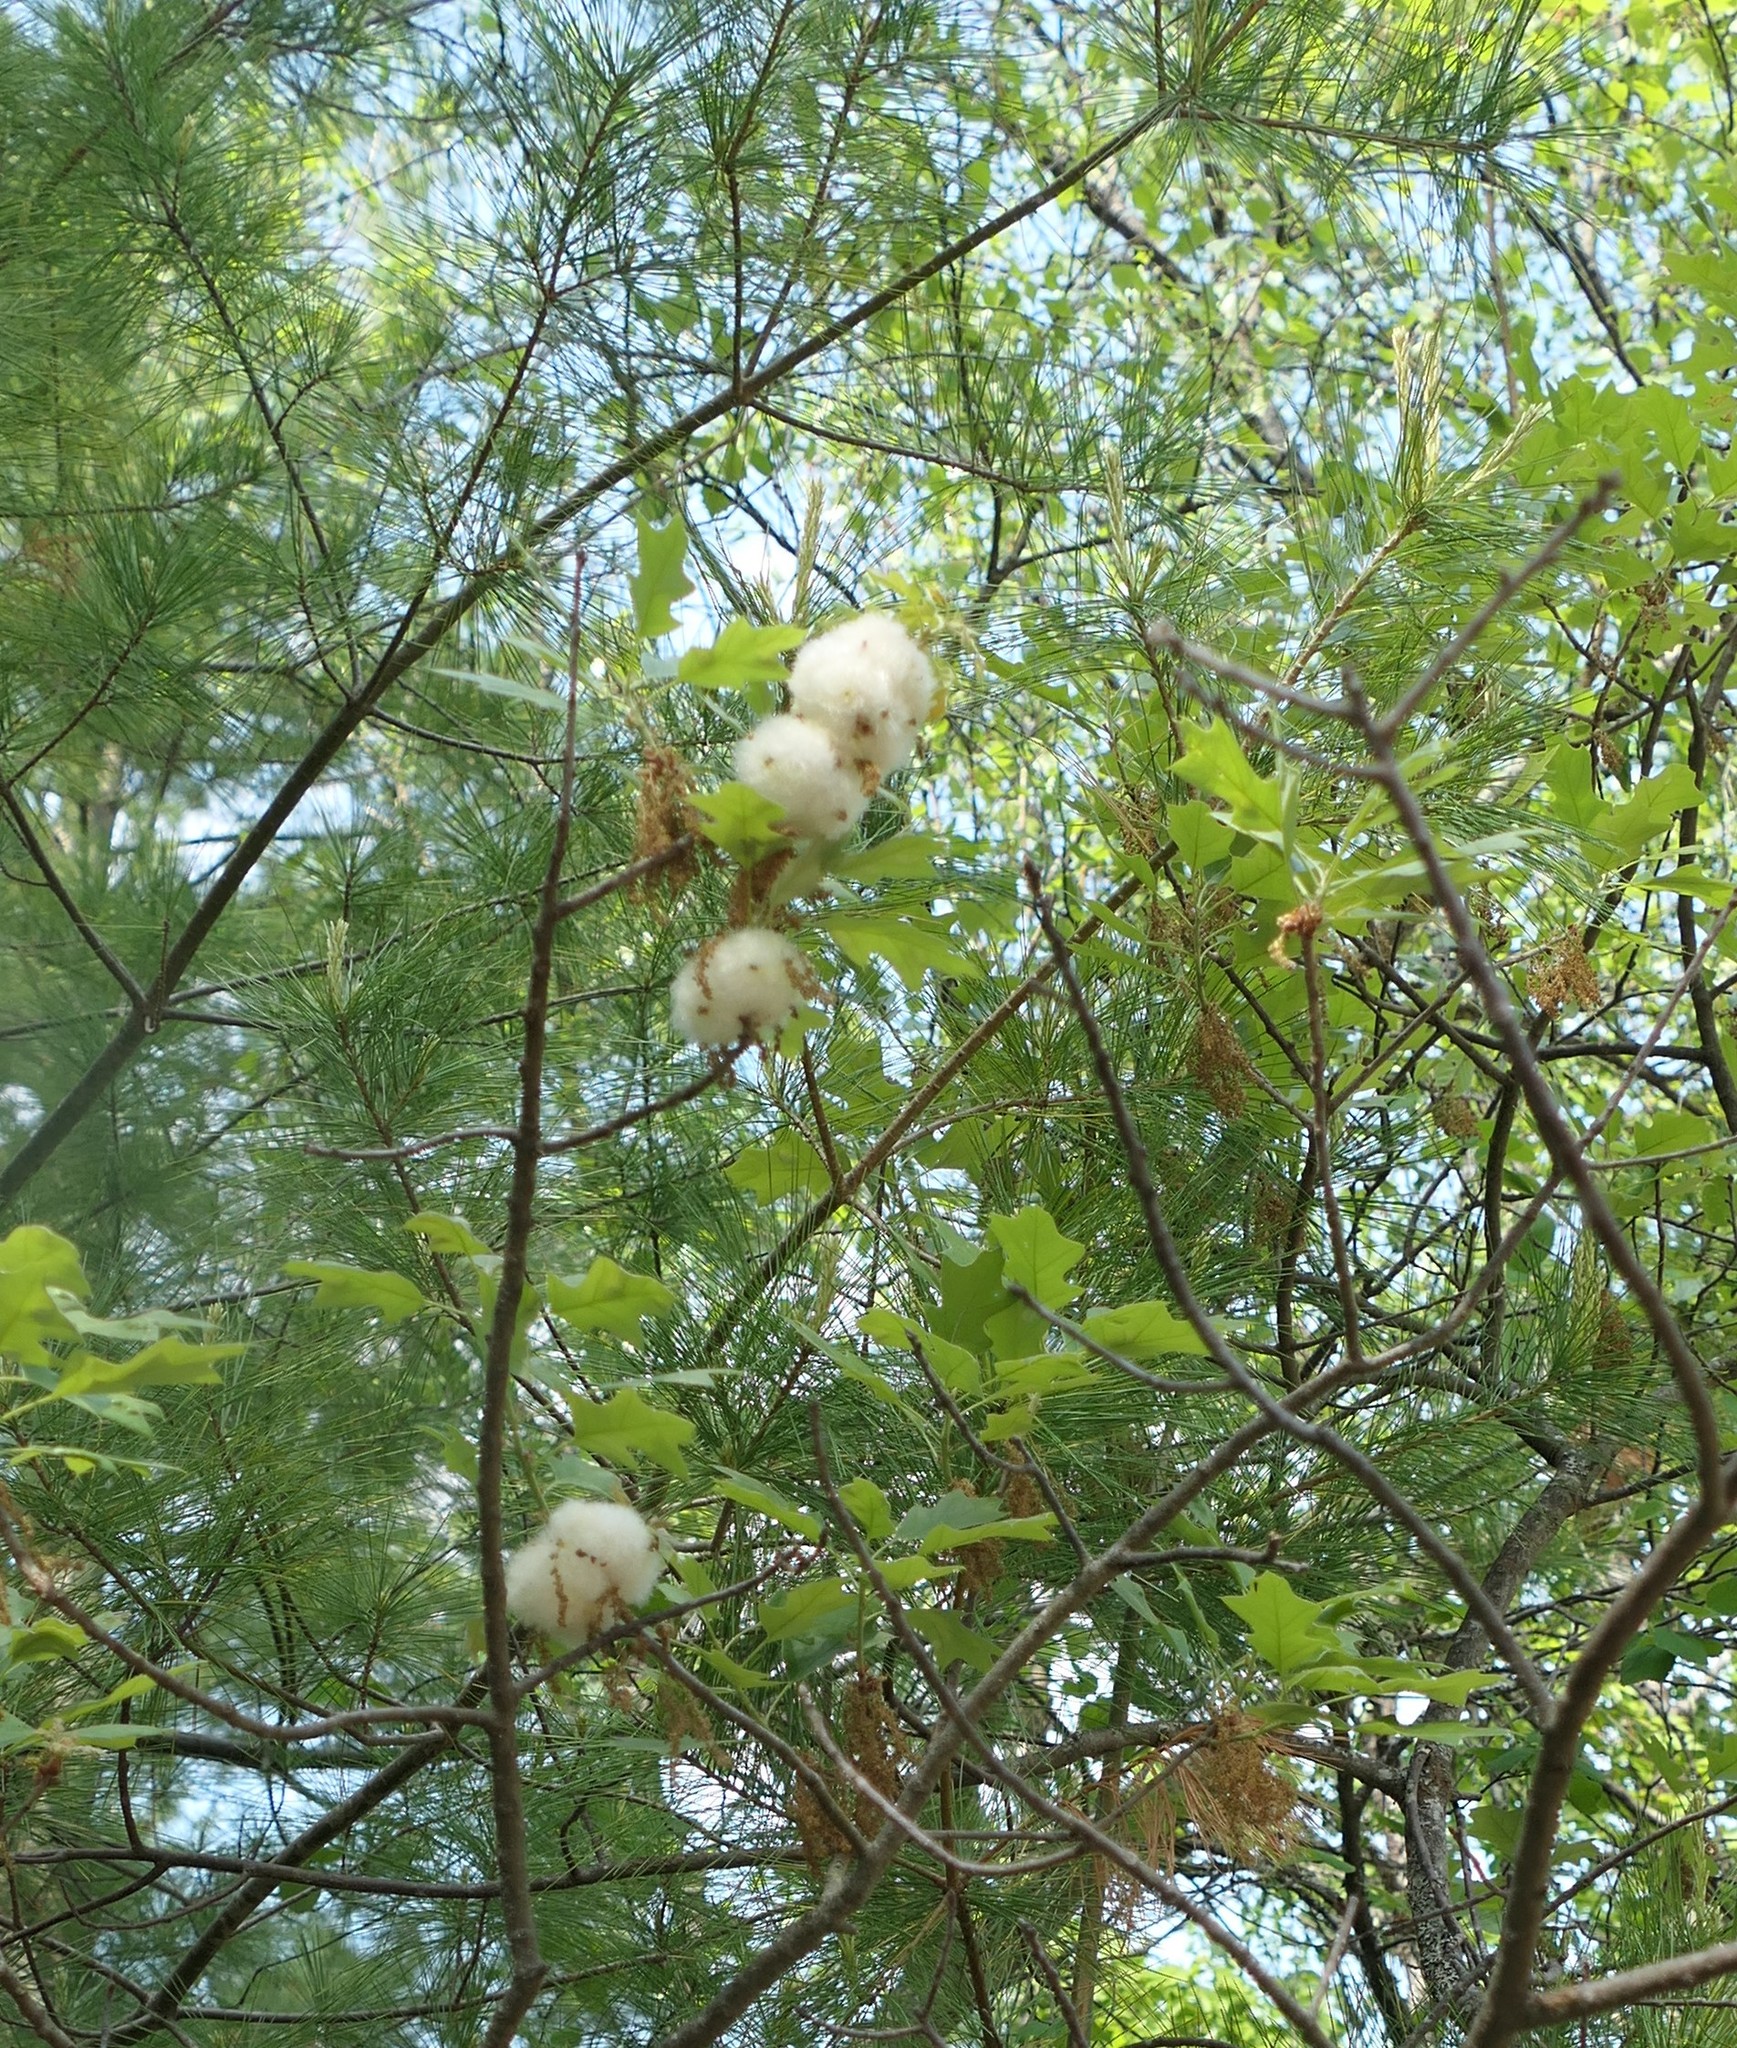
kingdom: Animalia
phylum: Arthropoda
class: Insecta
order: Hymenoptera
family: Cynipidae
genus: Callirhytis
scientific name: Callirhytis
